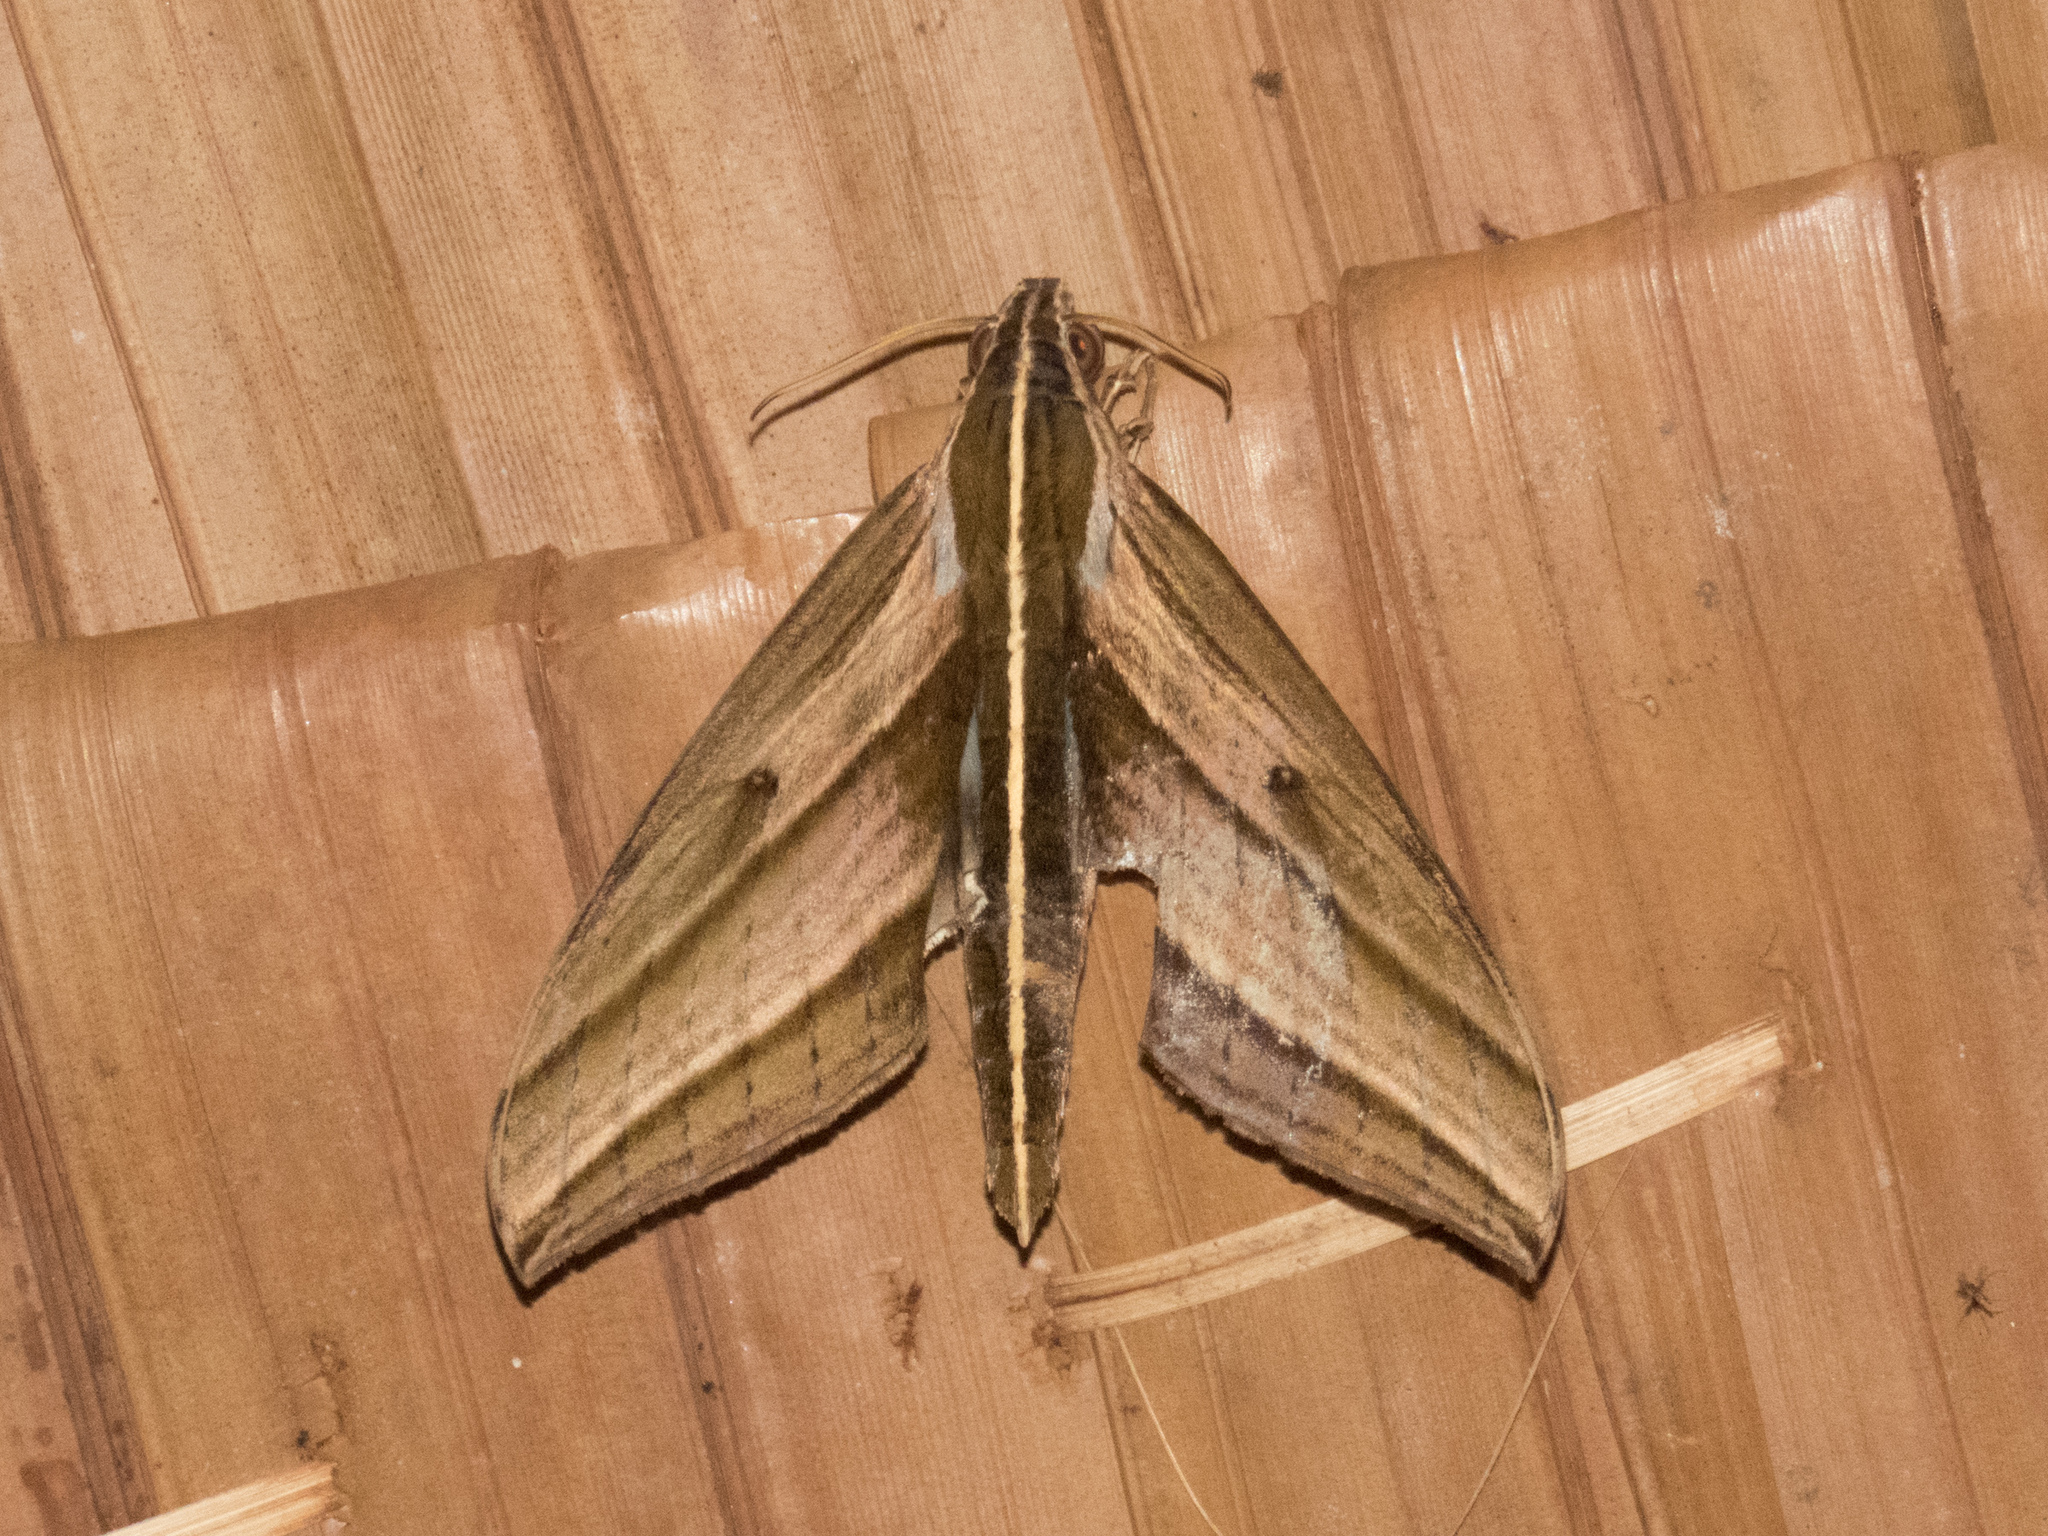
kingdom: Animalia
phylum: Arthropoda
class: Insecta
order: Lepidoptera
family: Sphingidae
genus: Elibia
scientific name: Elibia dolichus
